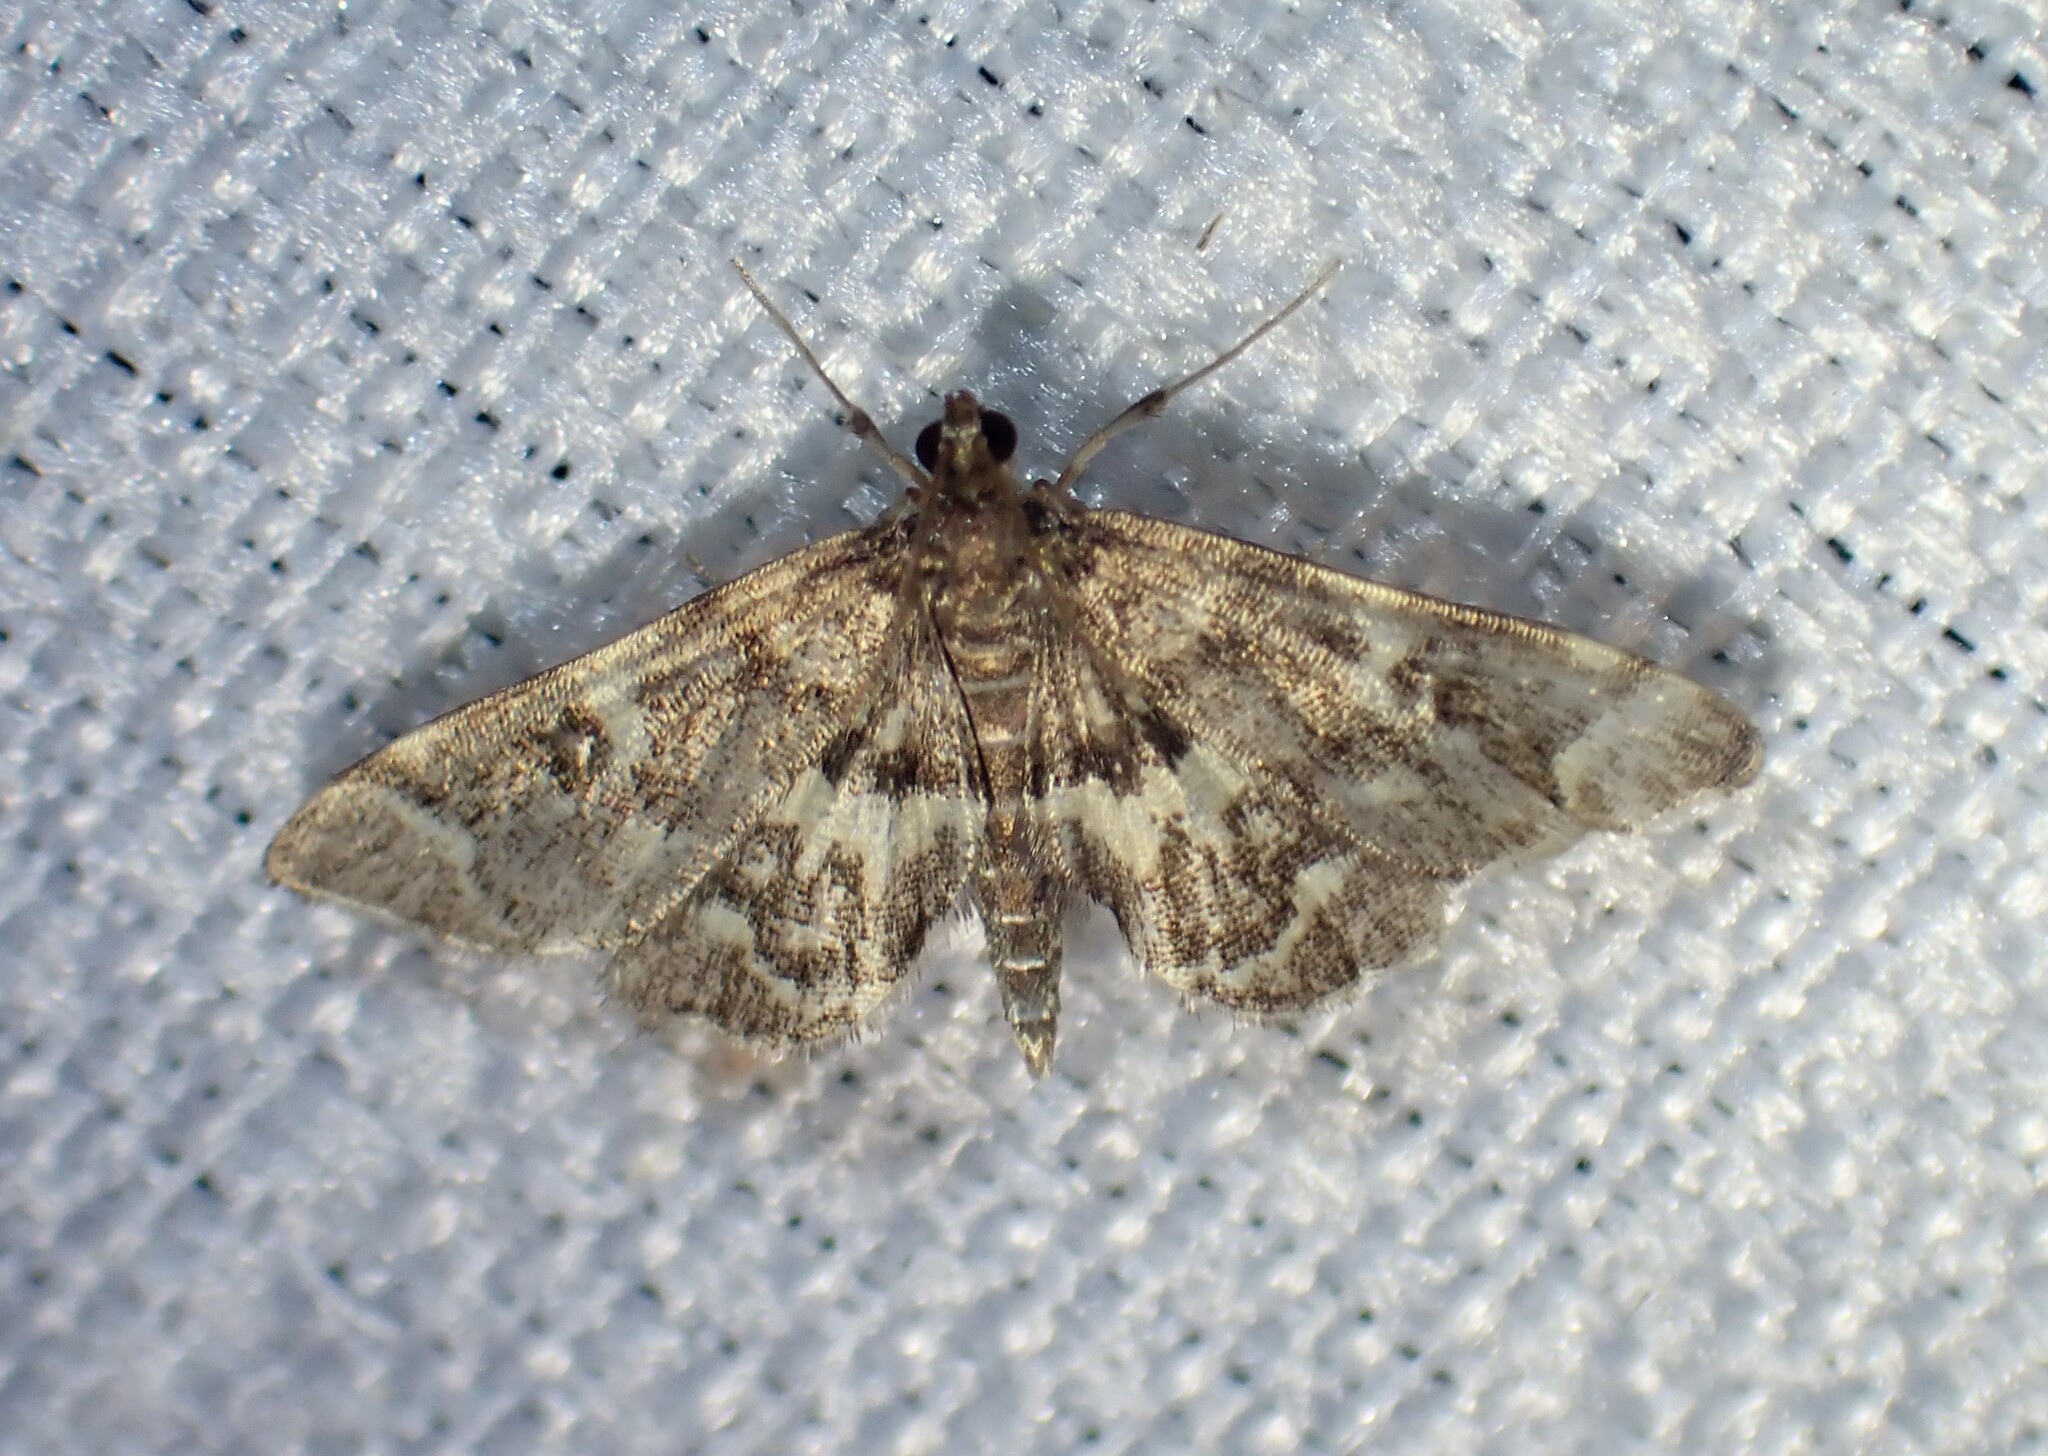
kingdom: Animalia
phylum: Arthropoda
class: Insecta
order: Lepidoptera
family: Crambidae
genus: Anageshna
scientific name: Anageshna primordialis
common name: Yellow-spotted webworm moth
